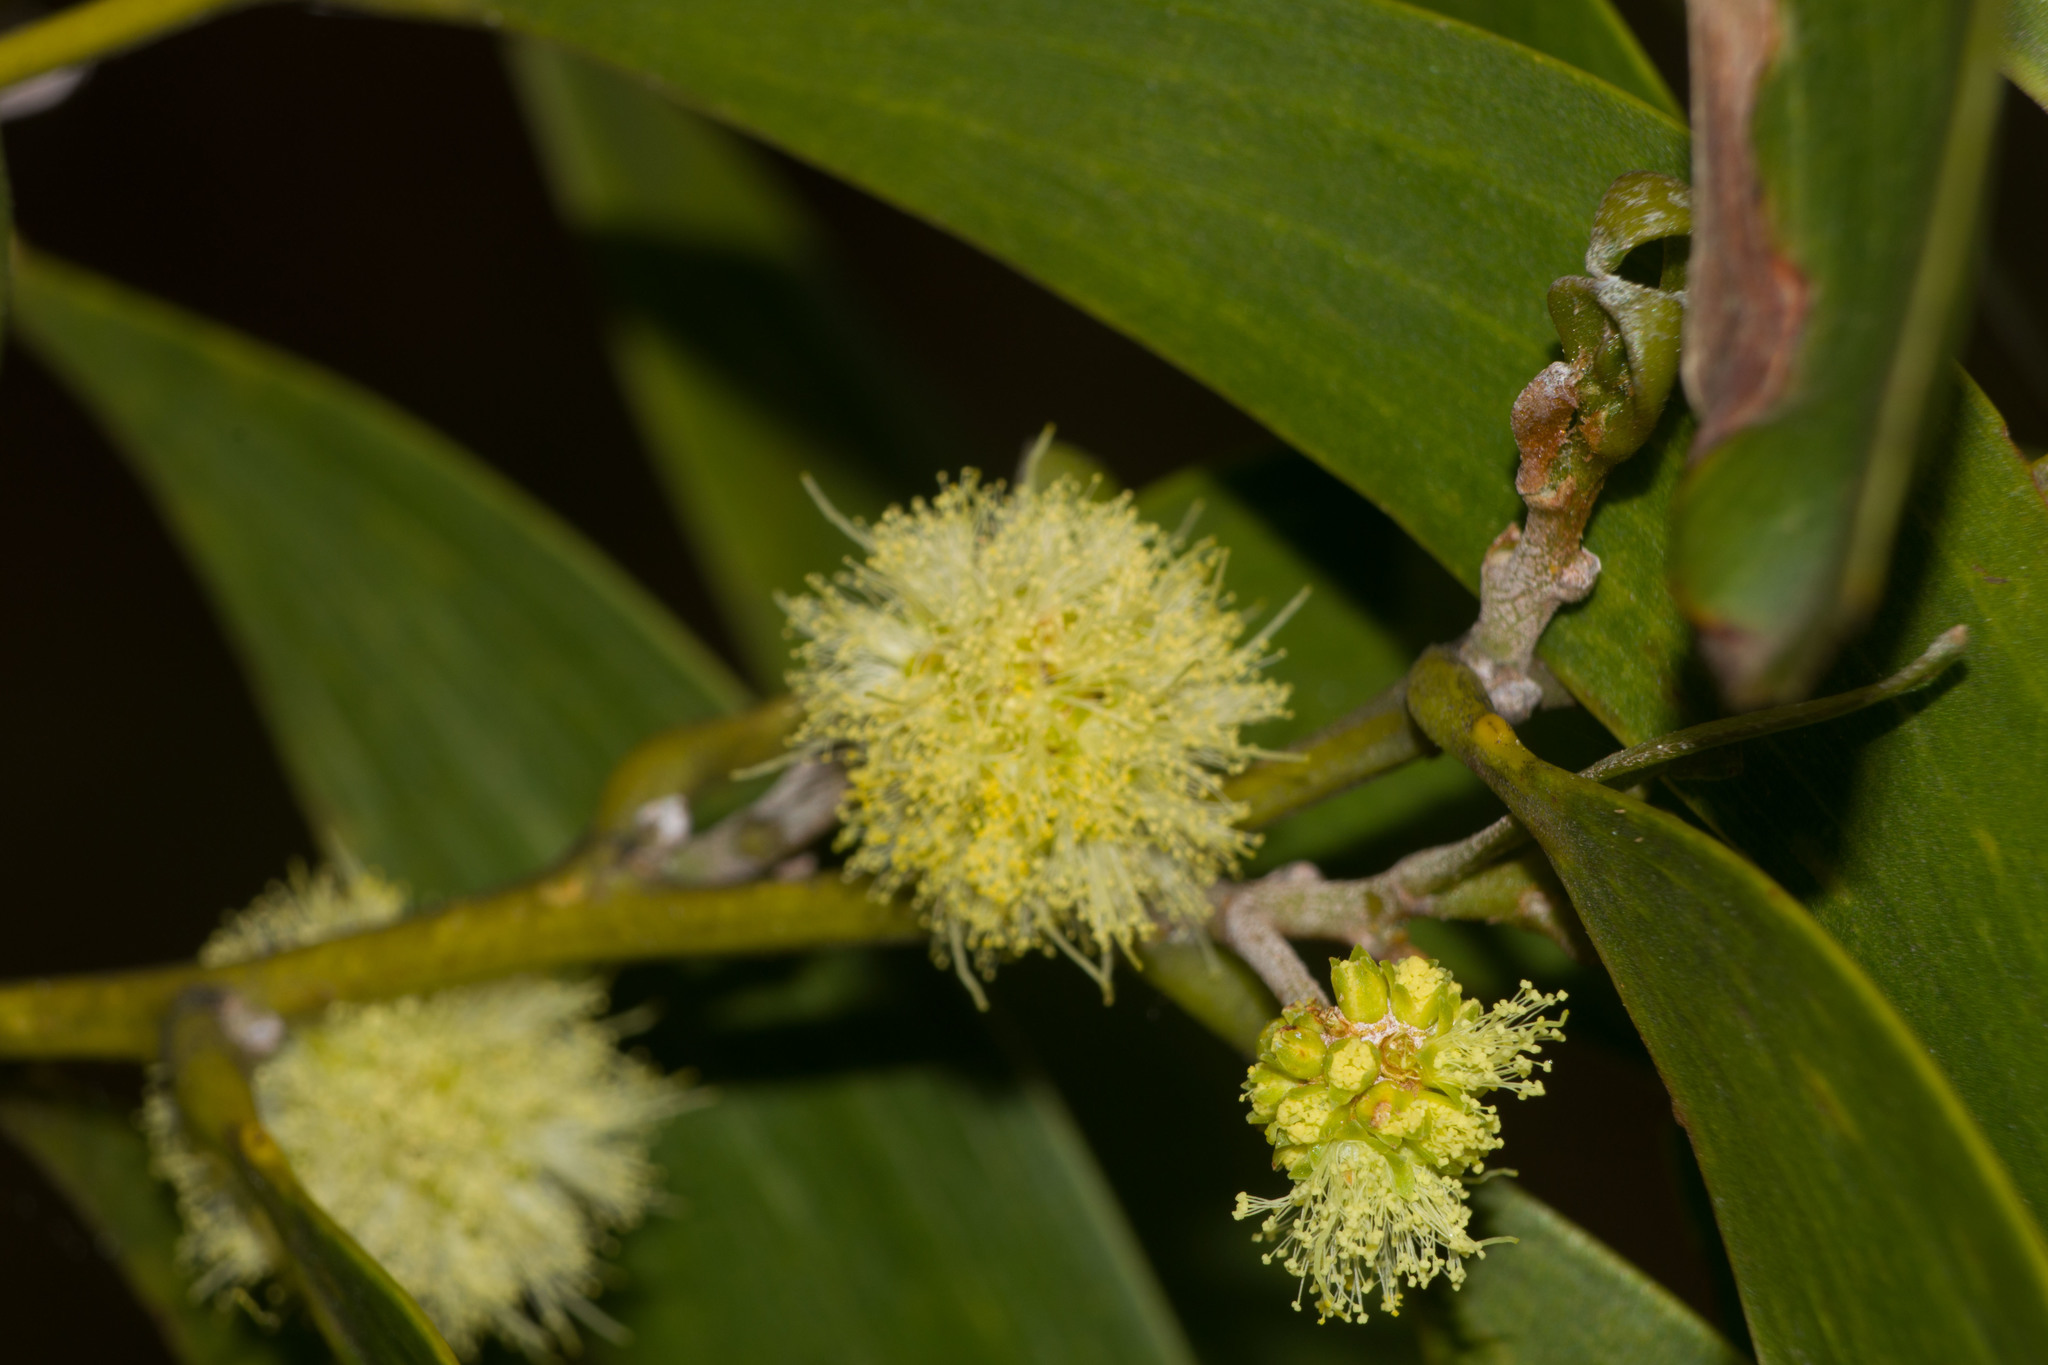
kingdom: Plantae
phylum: Tracheophyta
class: Magnoliopsida
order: Fabales
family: Fabaceae
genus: Acacia
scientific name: Acacia koa
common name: Gray koa
